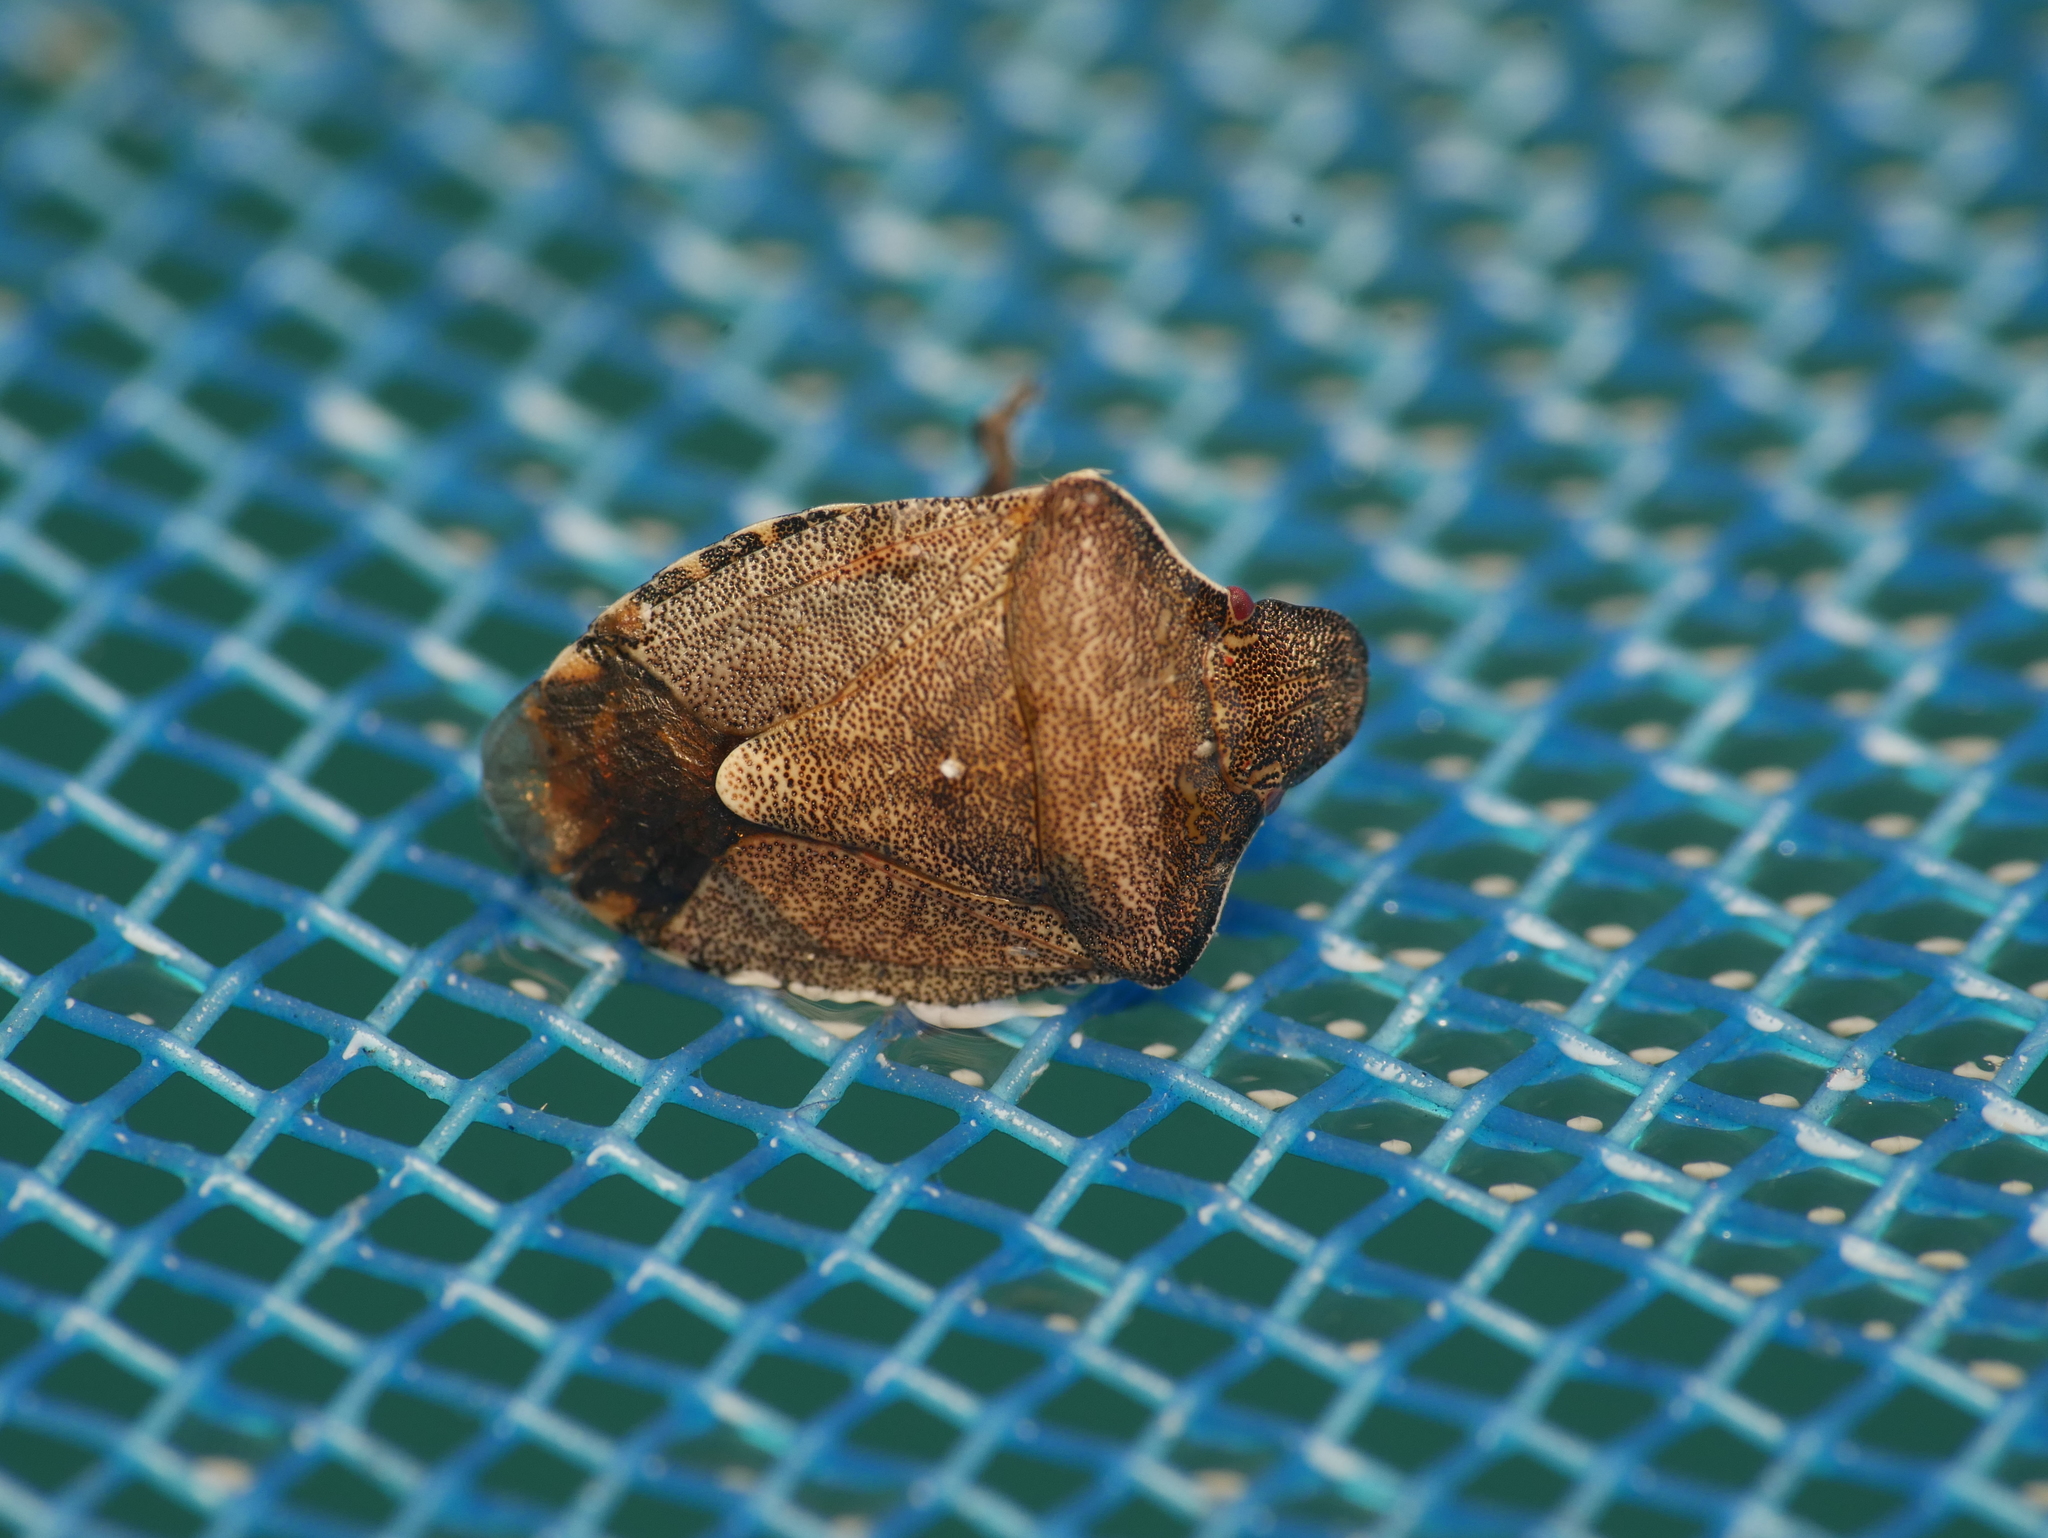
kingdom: Animalia
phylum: Arthropoda
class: Insecta
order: Hemiptera
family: Pentatomidae
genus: Holcostethus
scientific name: Holcostethus strictus
